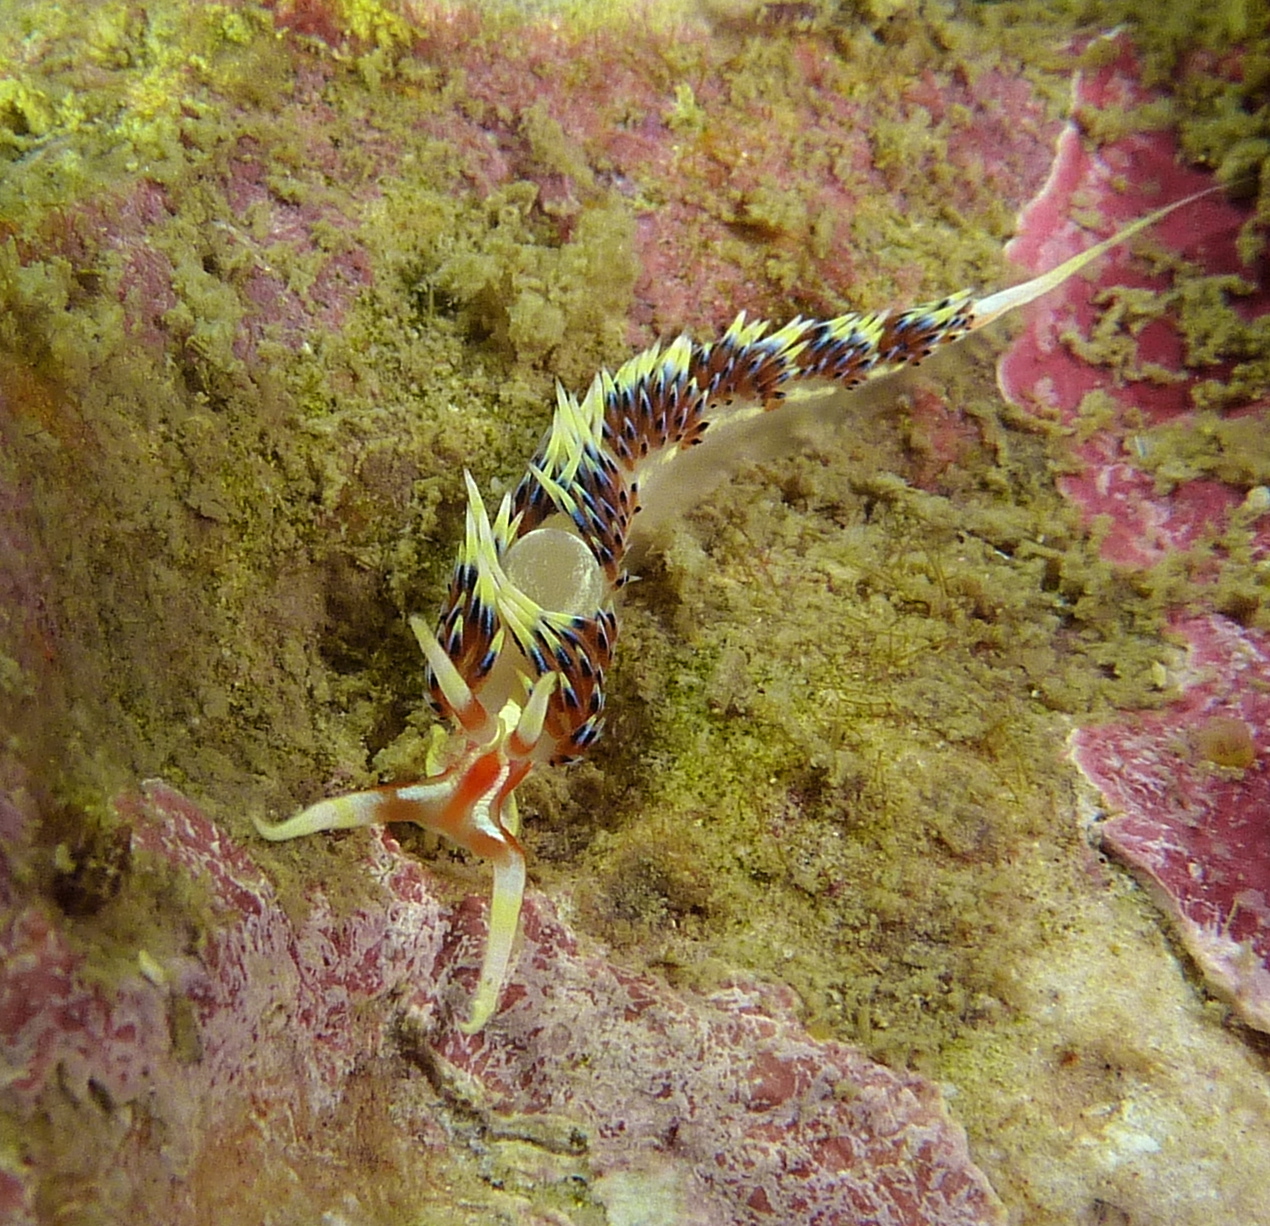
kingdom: Animalia
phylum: Mollusca
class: Gastropoda
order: Nudibranchia
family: Facelinidae
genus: Caloria
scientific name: Caloria indica
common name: Sea slug
